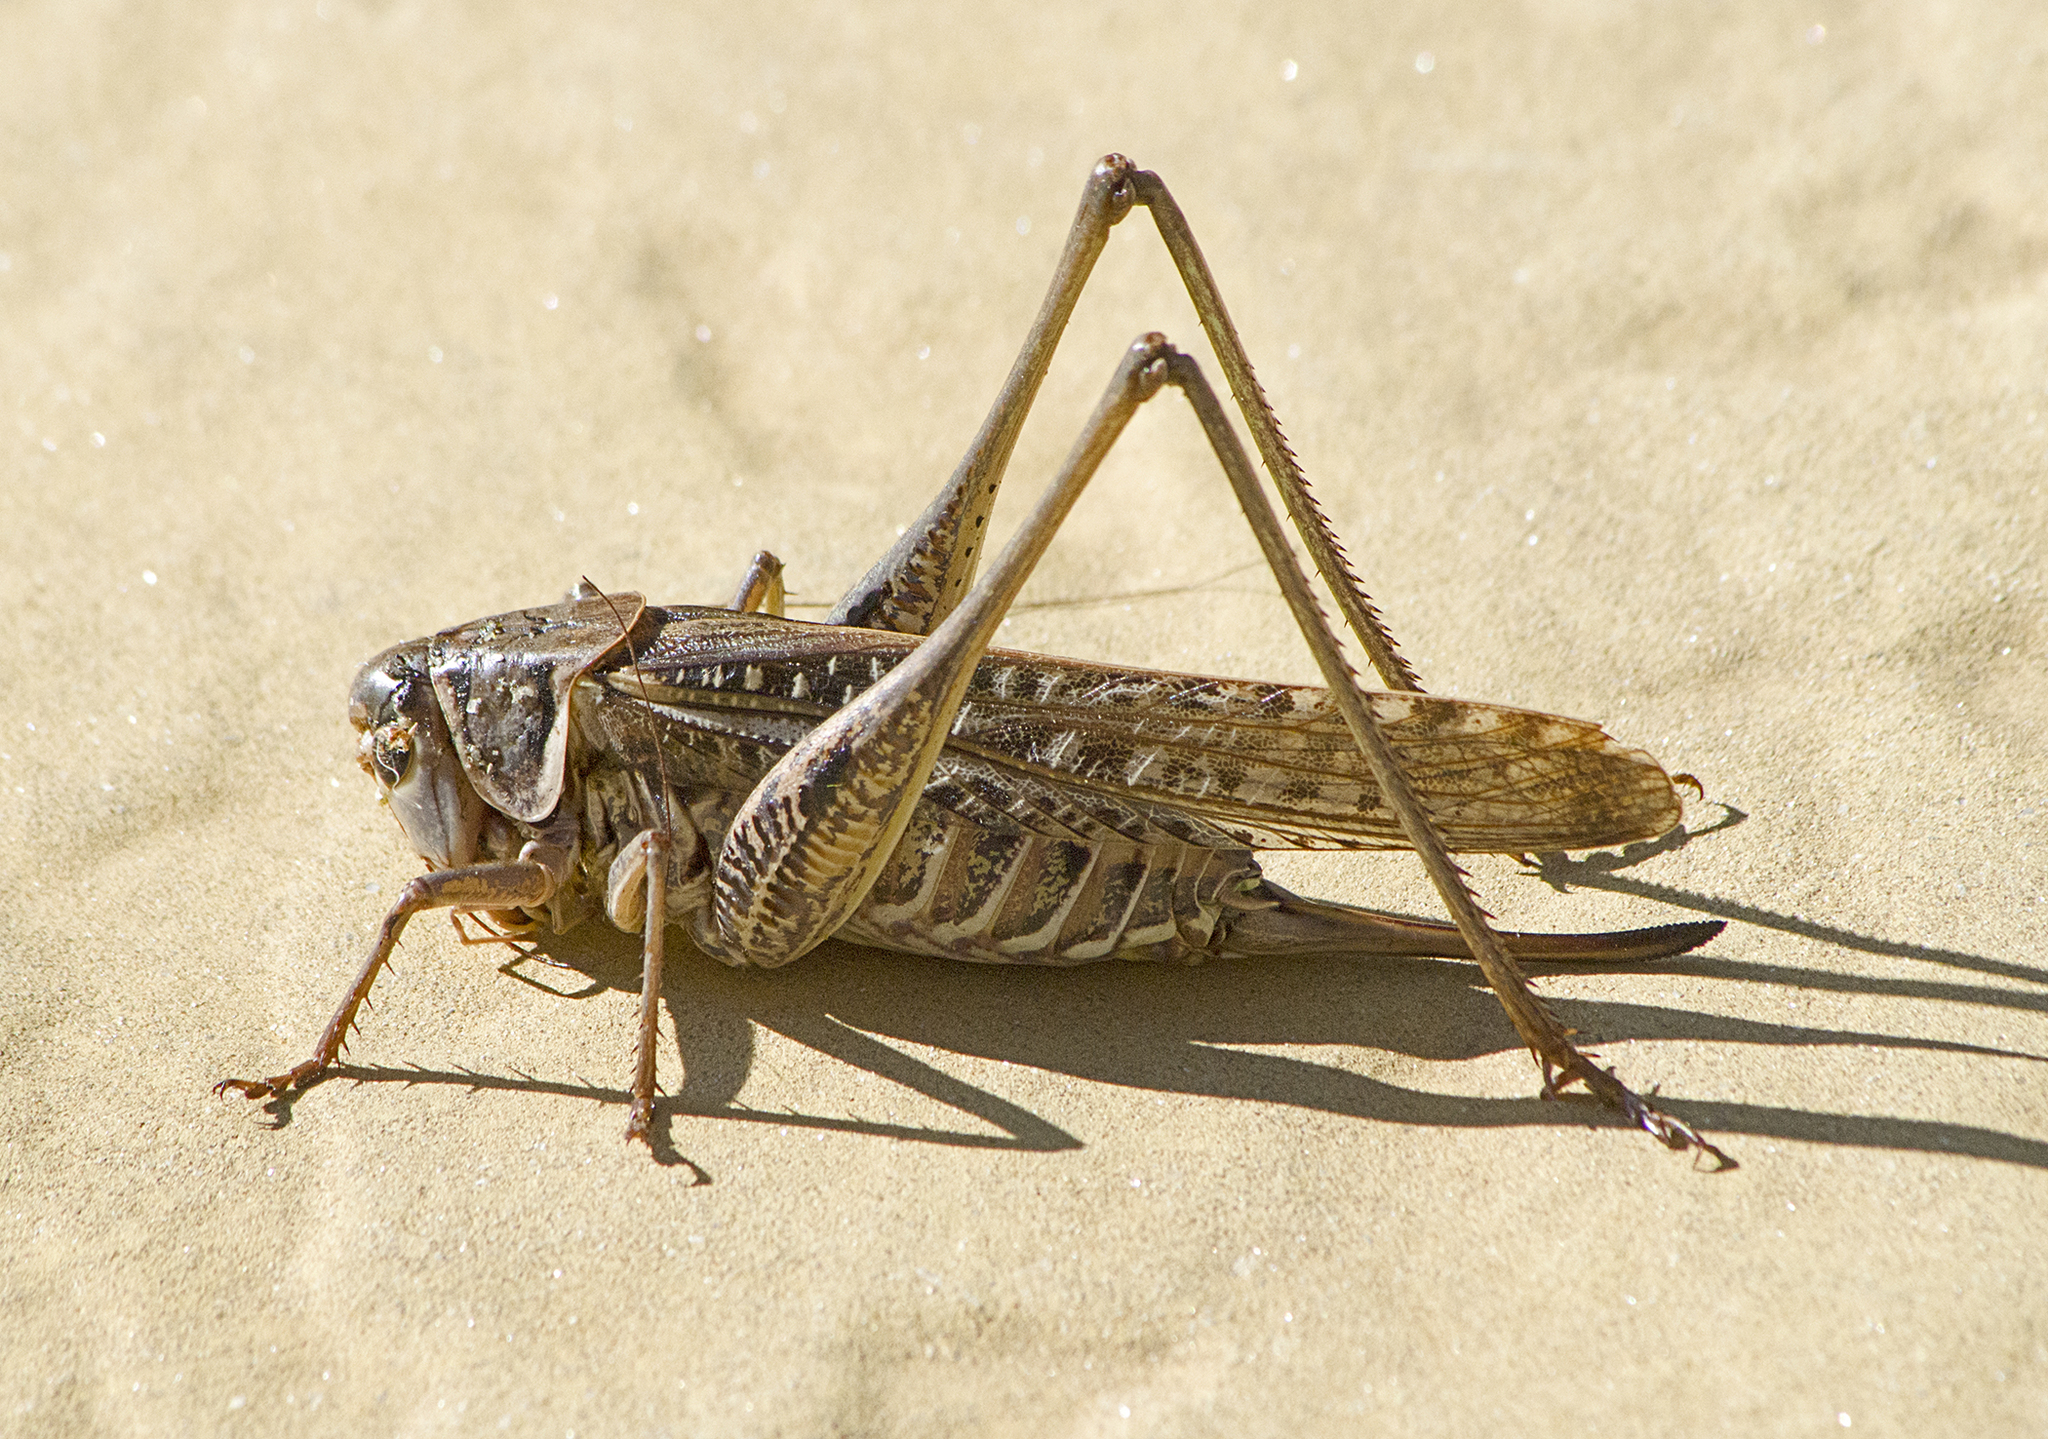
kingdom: Animalia
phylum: Arthropoda
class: Insecta
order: Orthoptera
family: Tettigoniidae
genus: Decticus
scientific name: Decticus albifrons
